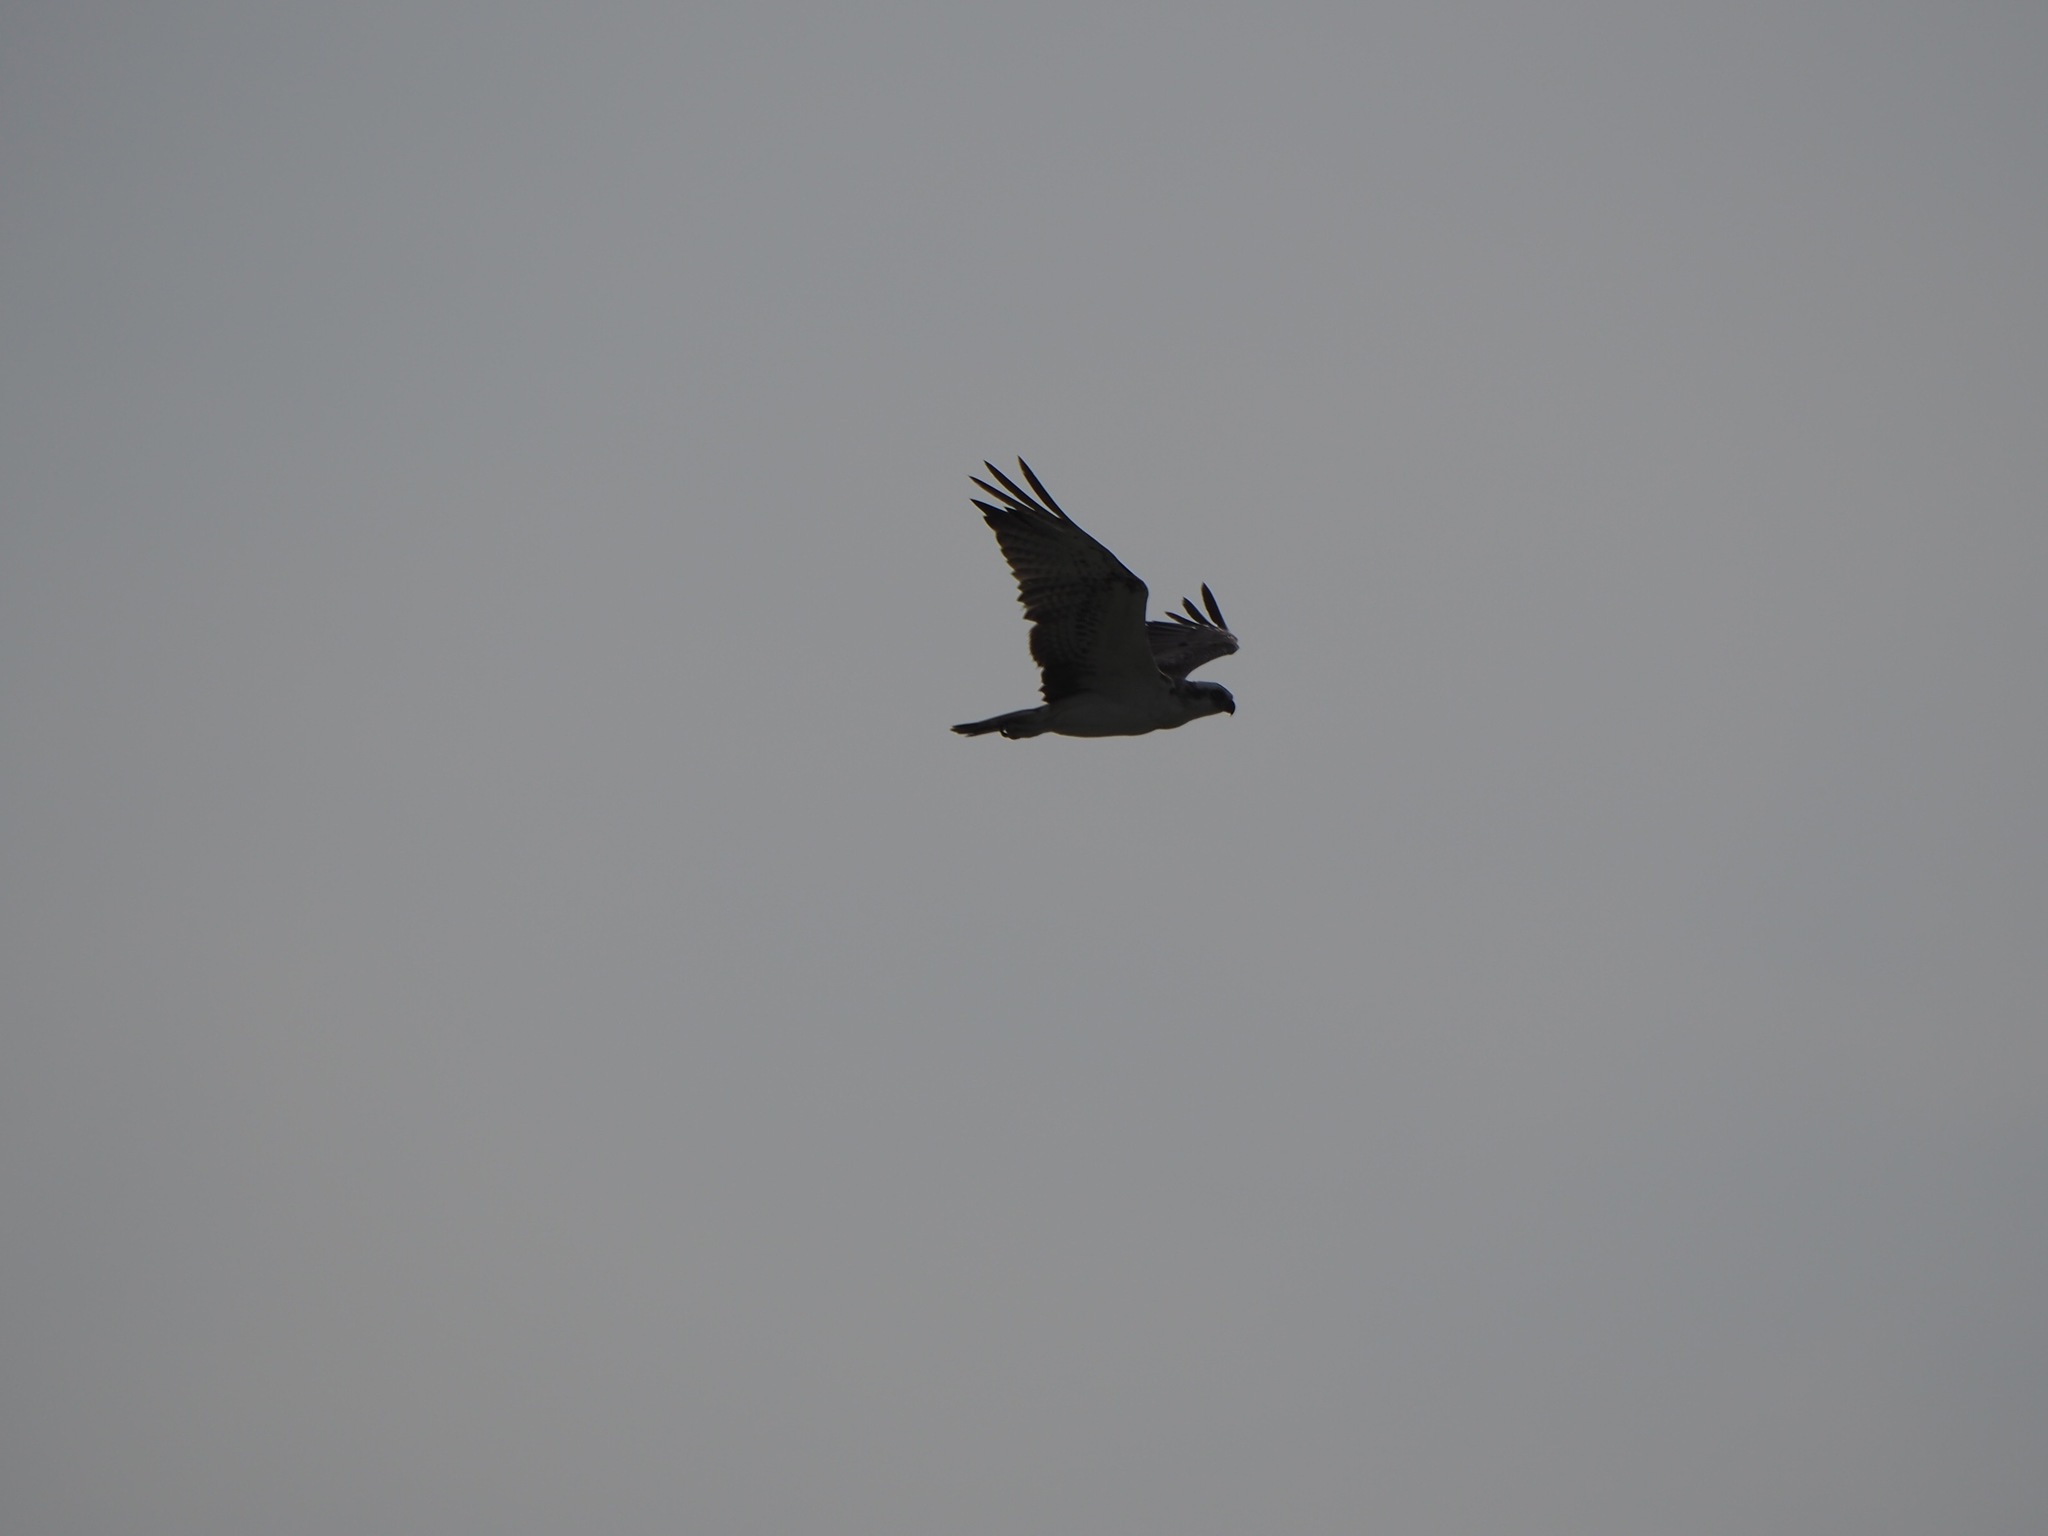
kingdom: Animalia
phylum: Chordata
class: Aves
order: Accipitriformes
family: Pandionidae
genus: Pandion
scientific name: Pandion haliaetus
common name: Osprey
